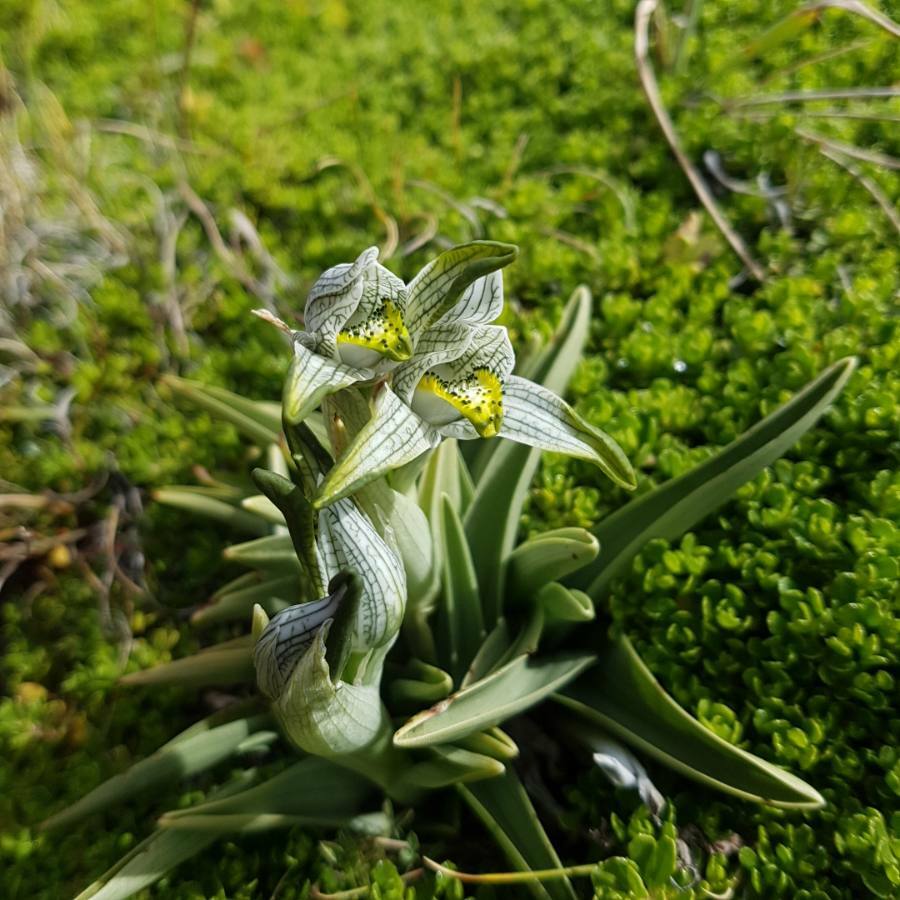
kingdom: Plantae
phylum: Tracheophyta
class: Liliopsida
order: Asparagales
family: Orchidaceae
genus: Chloraea
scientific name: Chloraea magellanica
